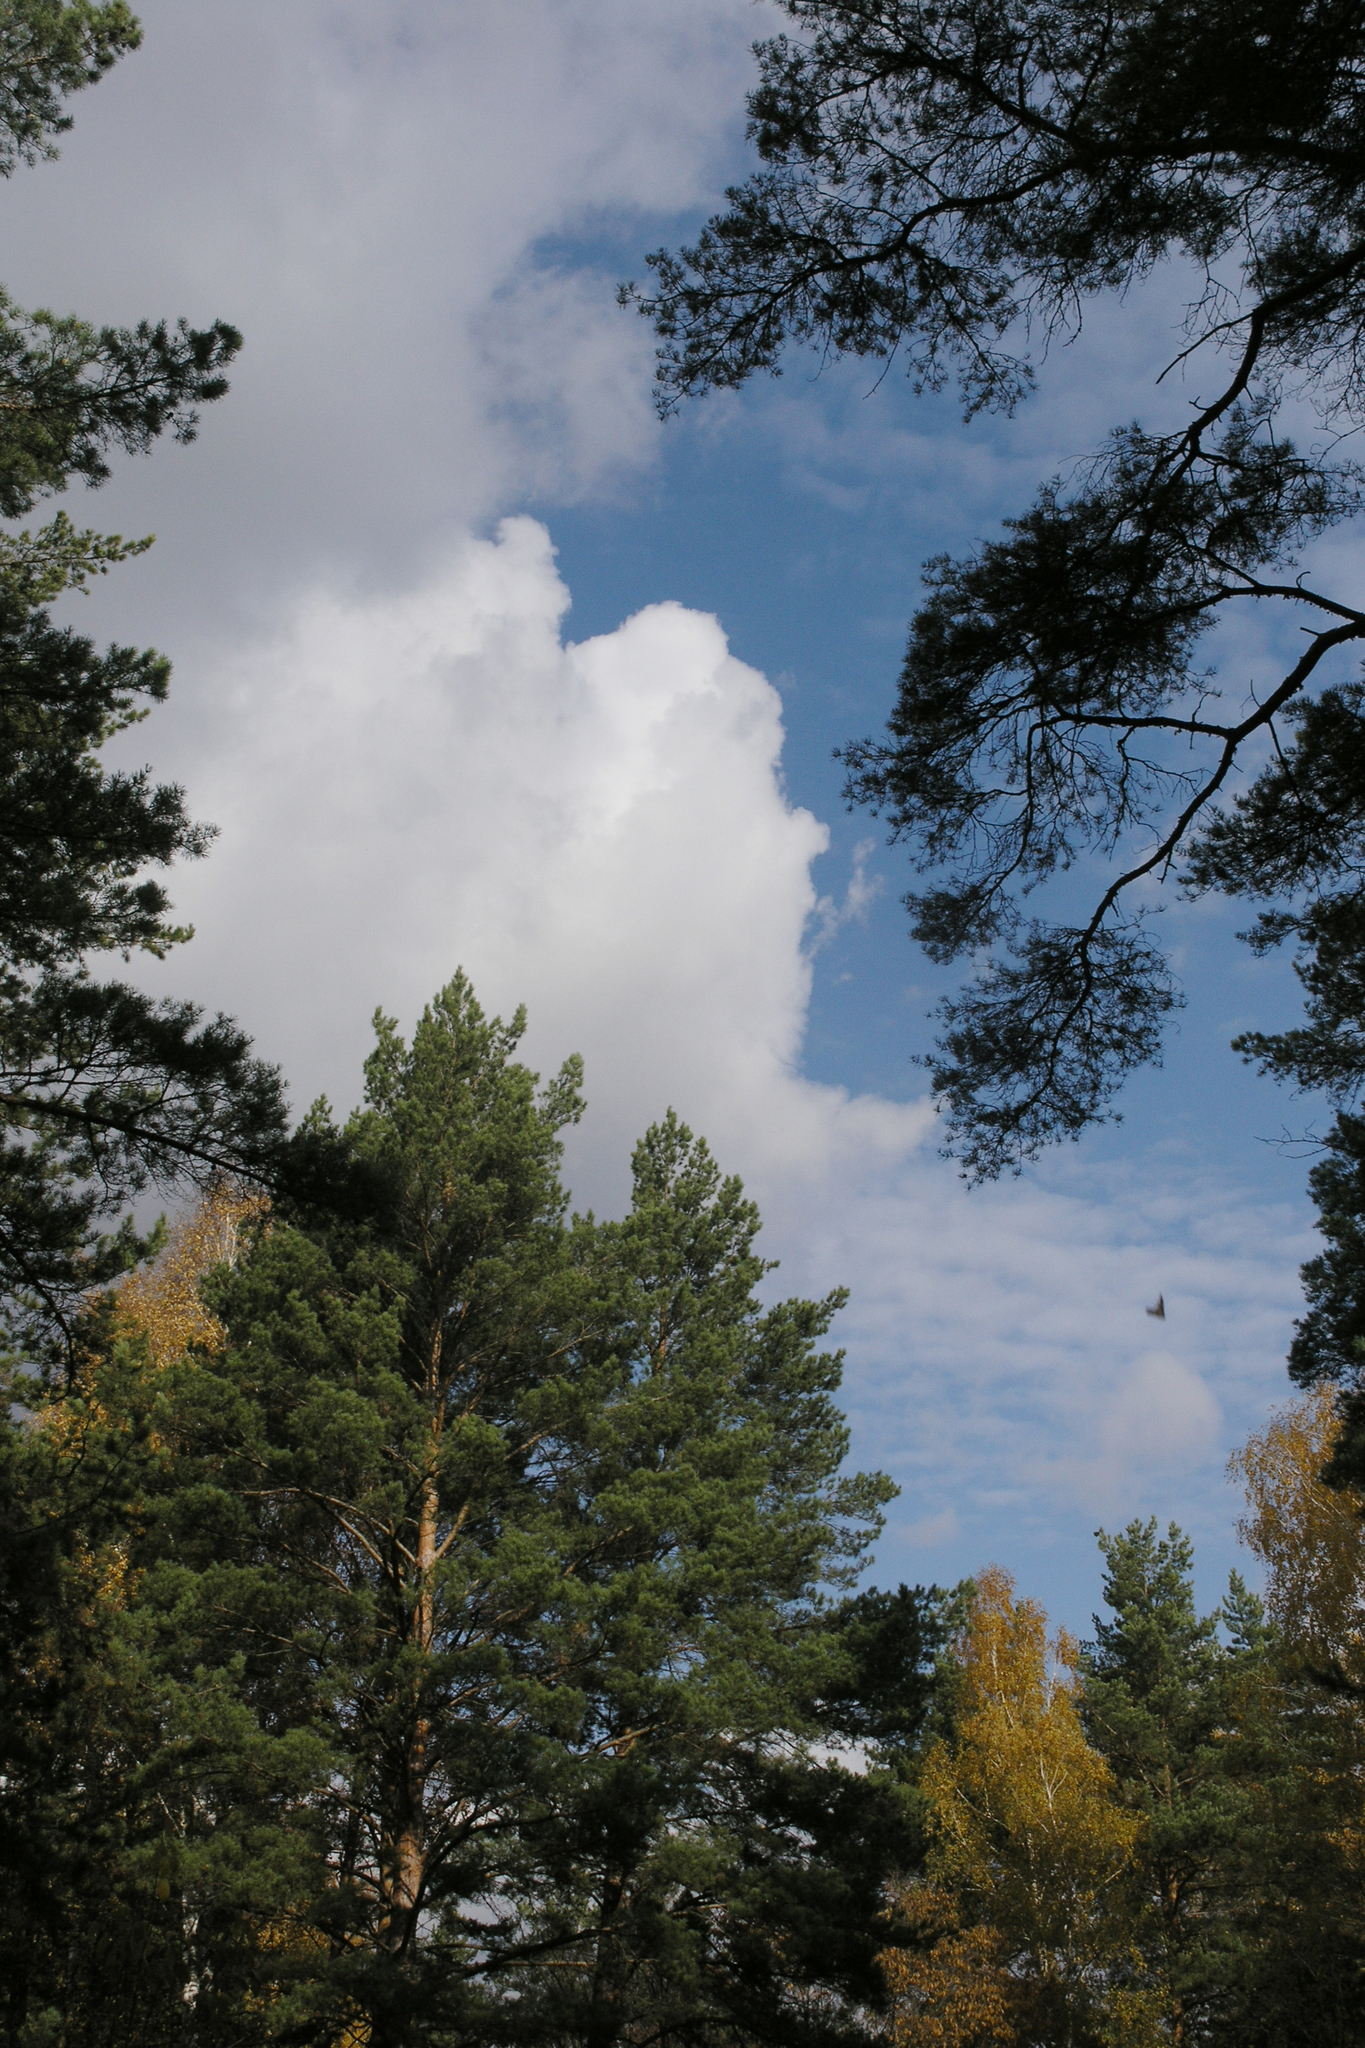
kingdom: Plantae
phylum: Tracheophyta
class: Pinopsida
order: Pinales
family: Pinaceae
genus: Pinus
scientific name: Pinus sylvestris
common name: Scots pine
